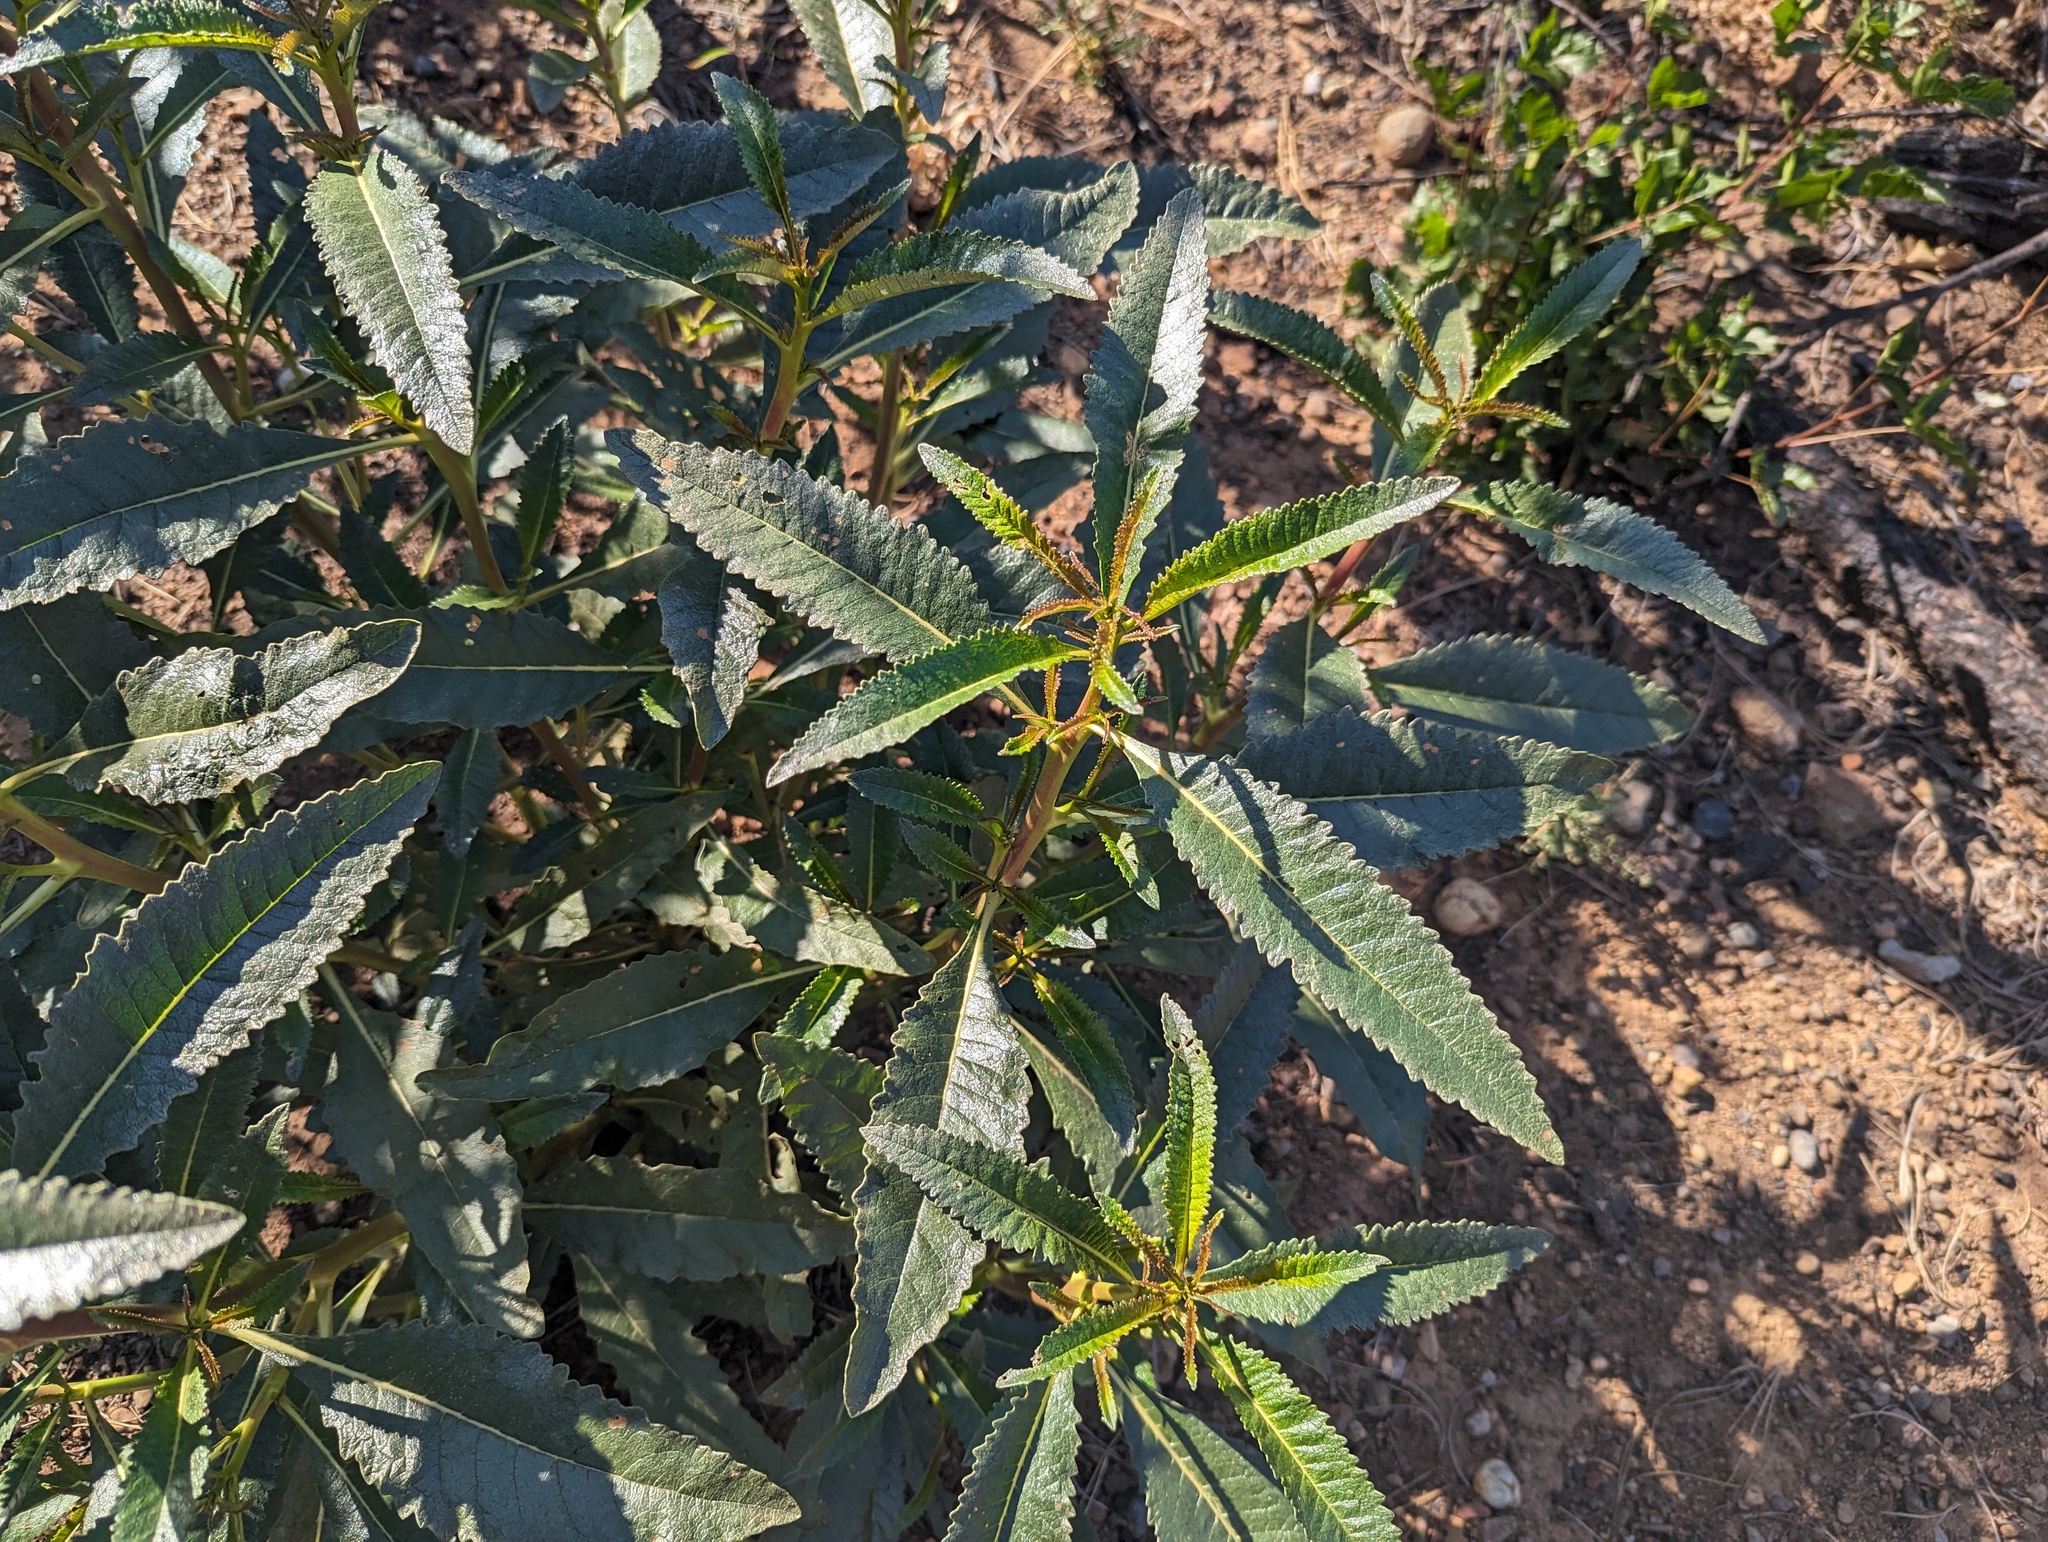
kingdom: Plantae
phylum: Tracheophyta
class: Magnoliopsida
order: Boraginales
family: Namaceae
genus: Eriodictyon
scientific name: Eriodictyon californicum
